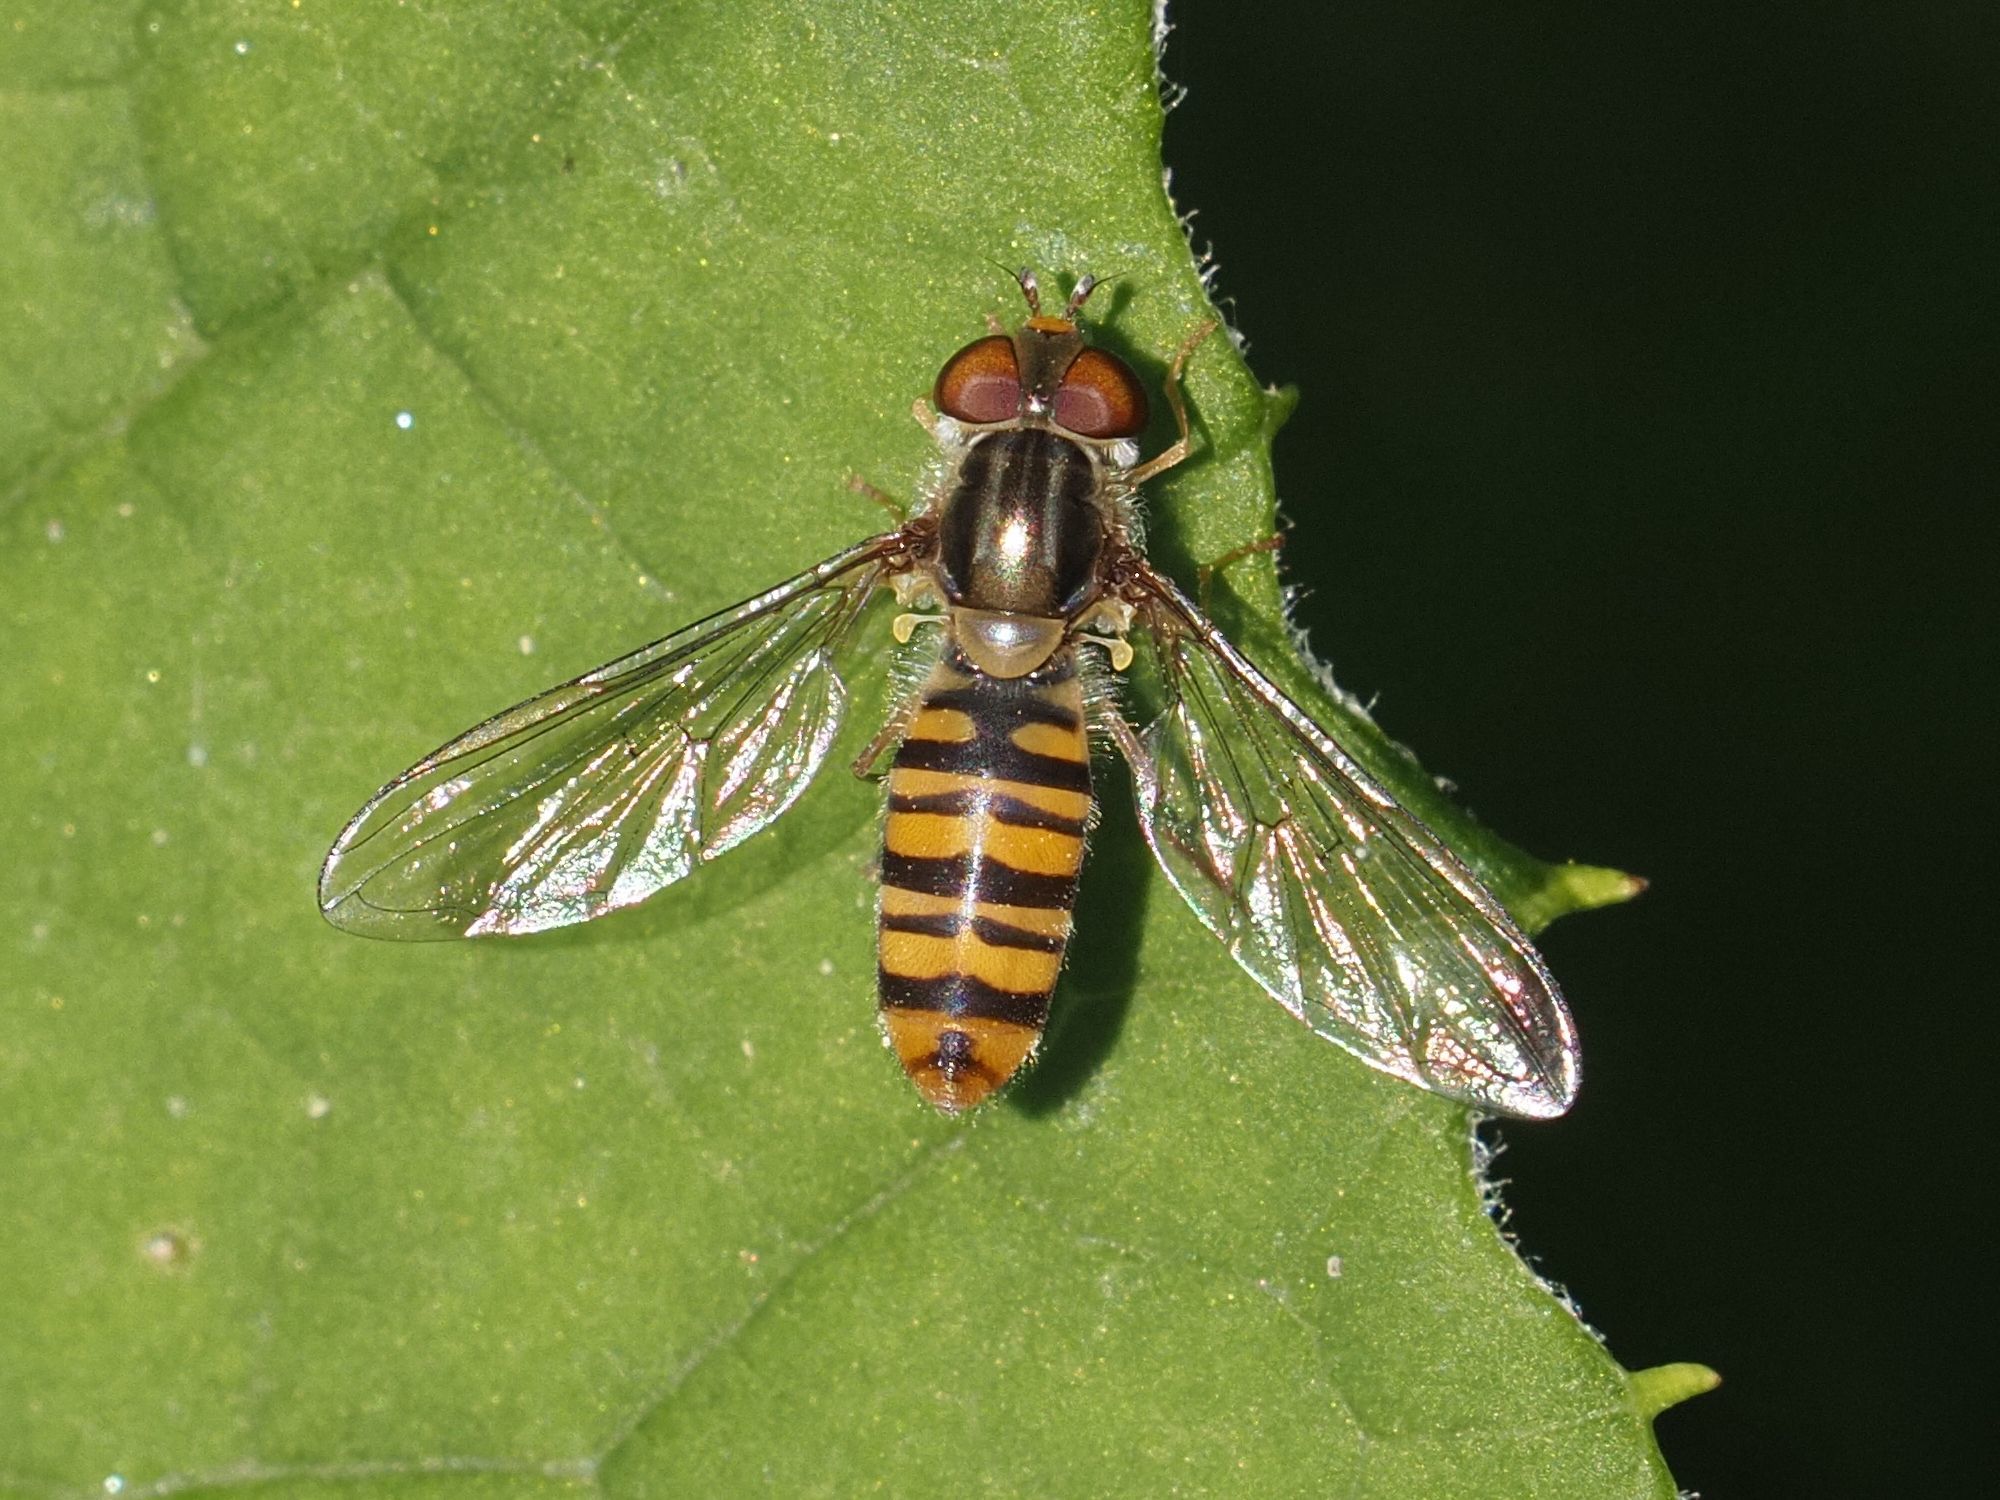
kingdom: Animalia
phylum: Arthropoda
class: Insecta
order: Diptera
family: Syrphidae
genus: Episyrphus
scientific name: Episyrphus balteatus
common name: Marmalade hoverfly
